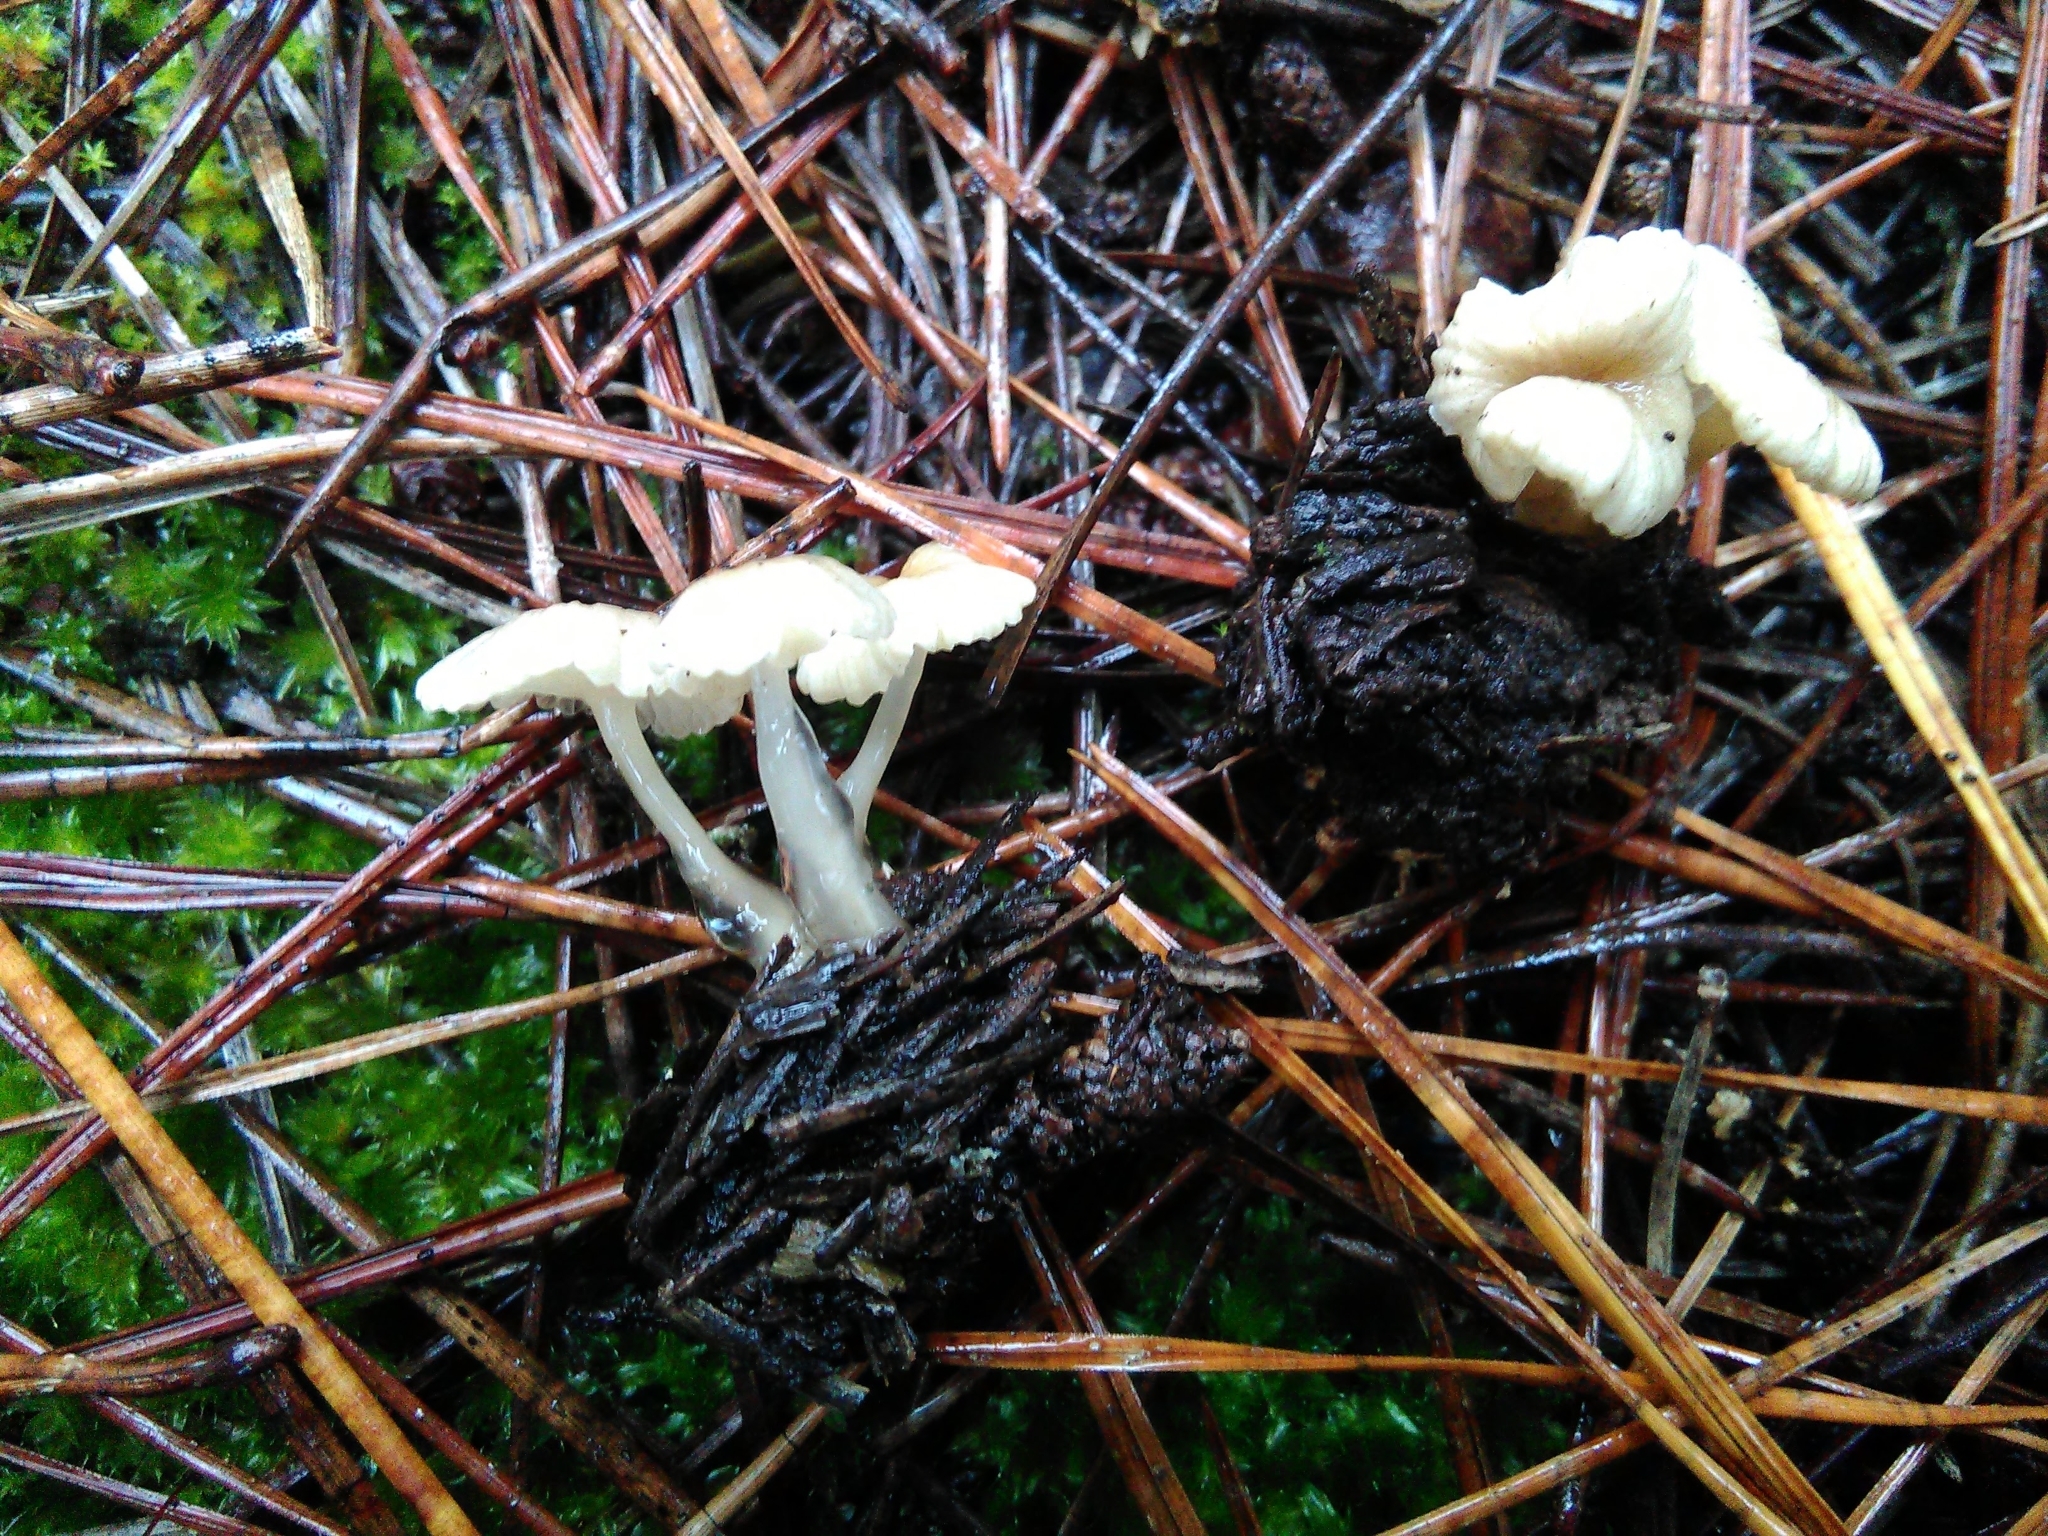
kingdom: Fungi
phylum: Basidiomycota
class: Agaricomycetes
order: Agaricales
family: Mycenaceae
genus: Roridomyces
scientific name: Roridomyces roridus
